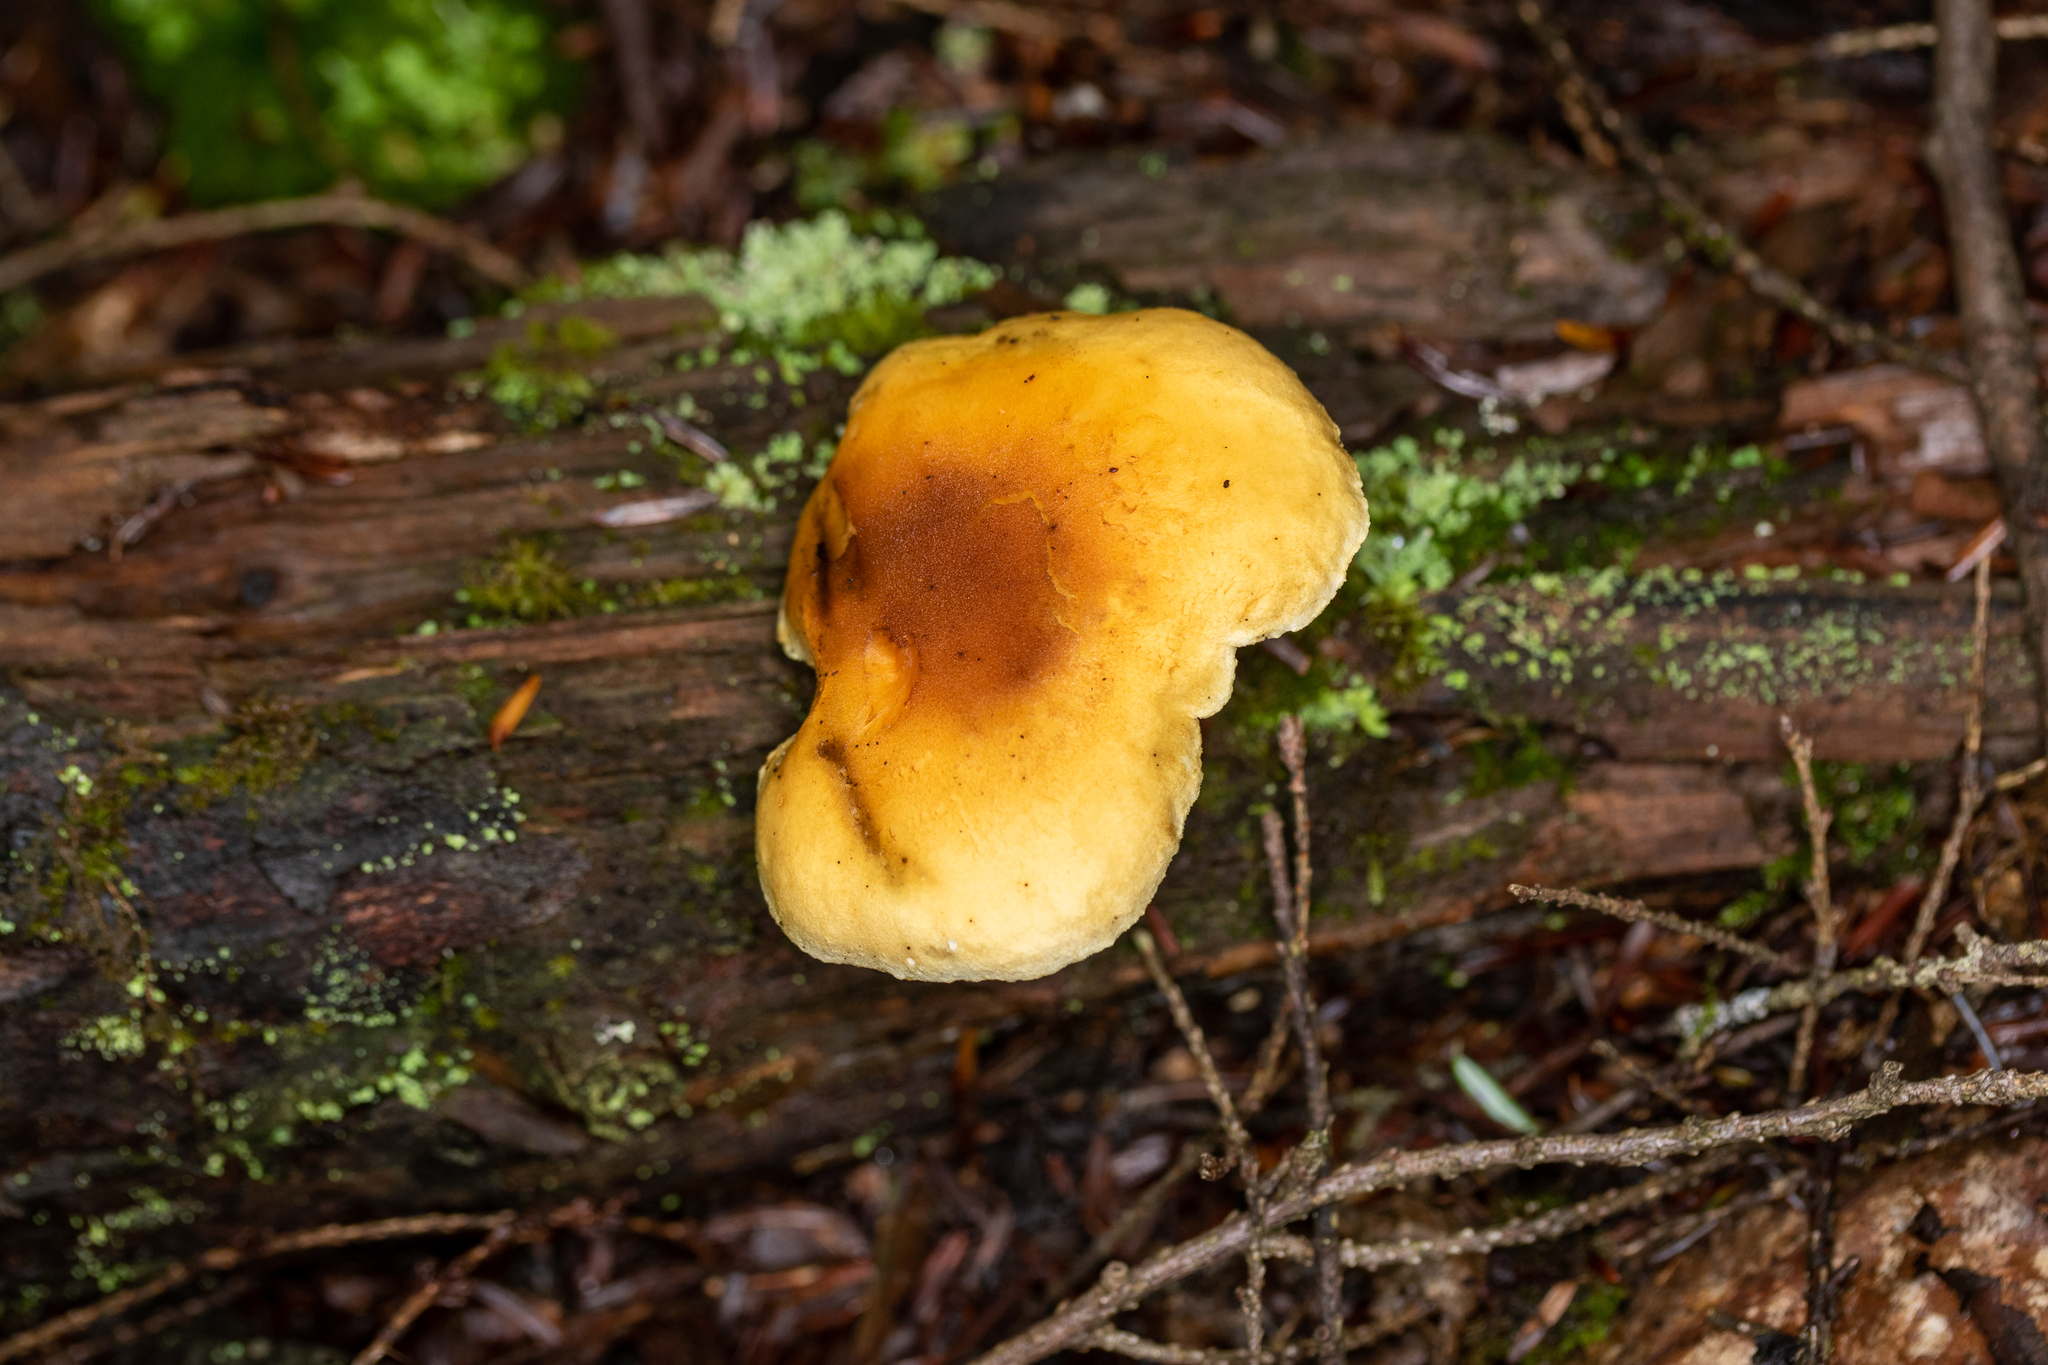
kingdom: Fungi
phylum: Basidiomycota
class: Agaricomycetes
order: Boletales
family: Hygrophoropsidaceae
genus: Hygrophoropsis
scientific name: Hygrophoropsis aurantiaca
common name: False chanterelle
